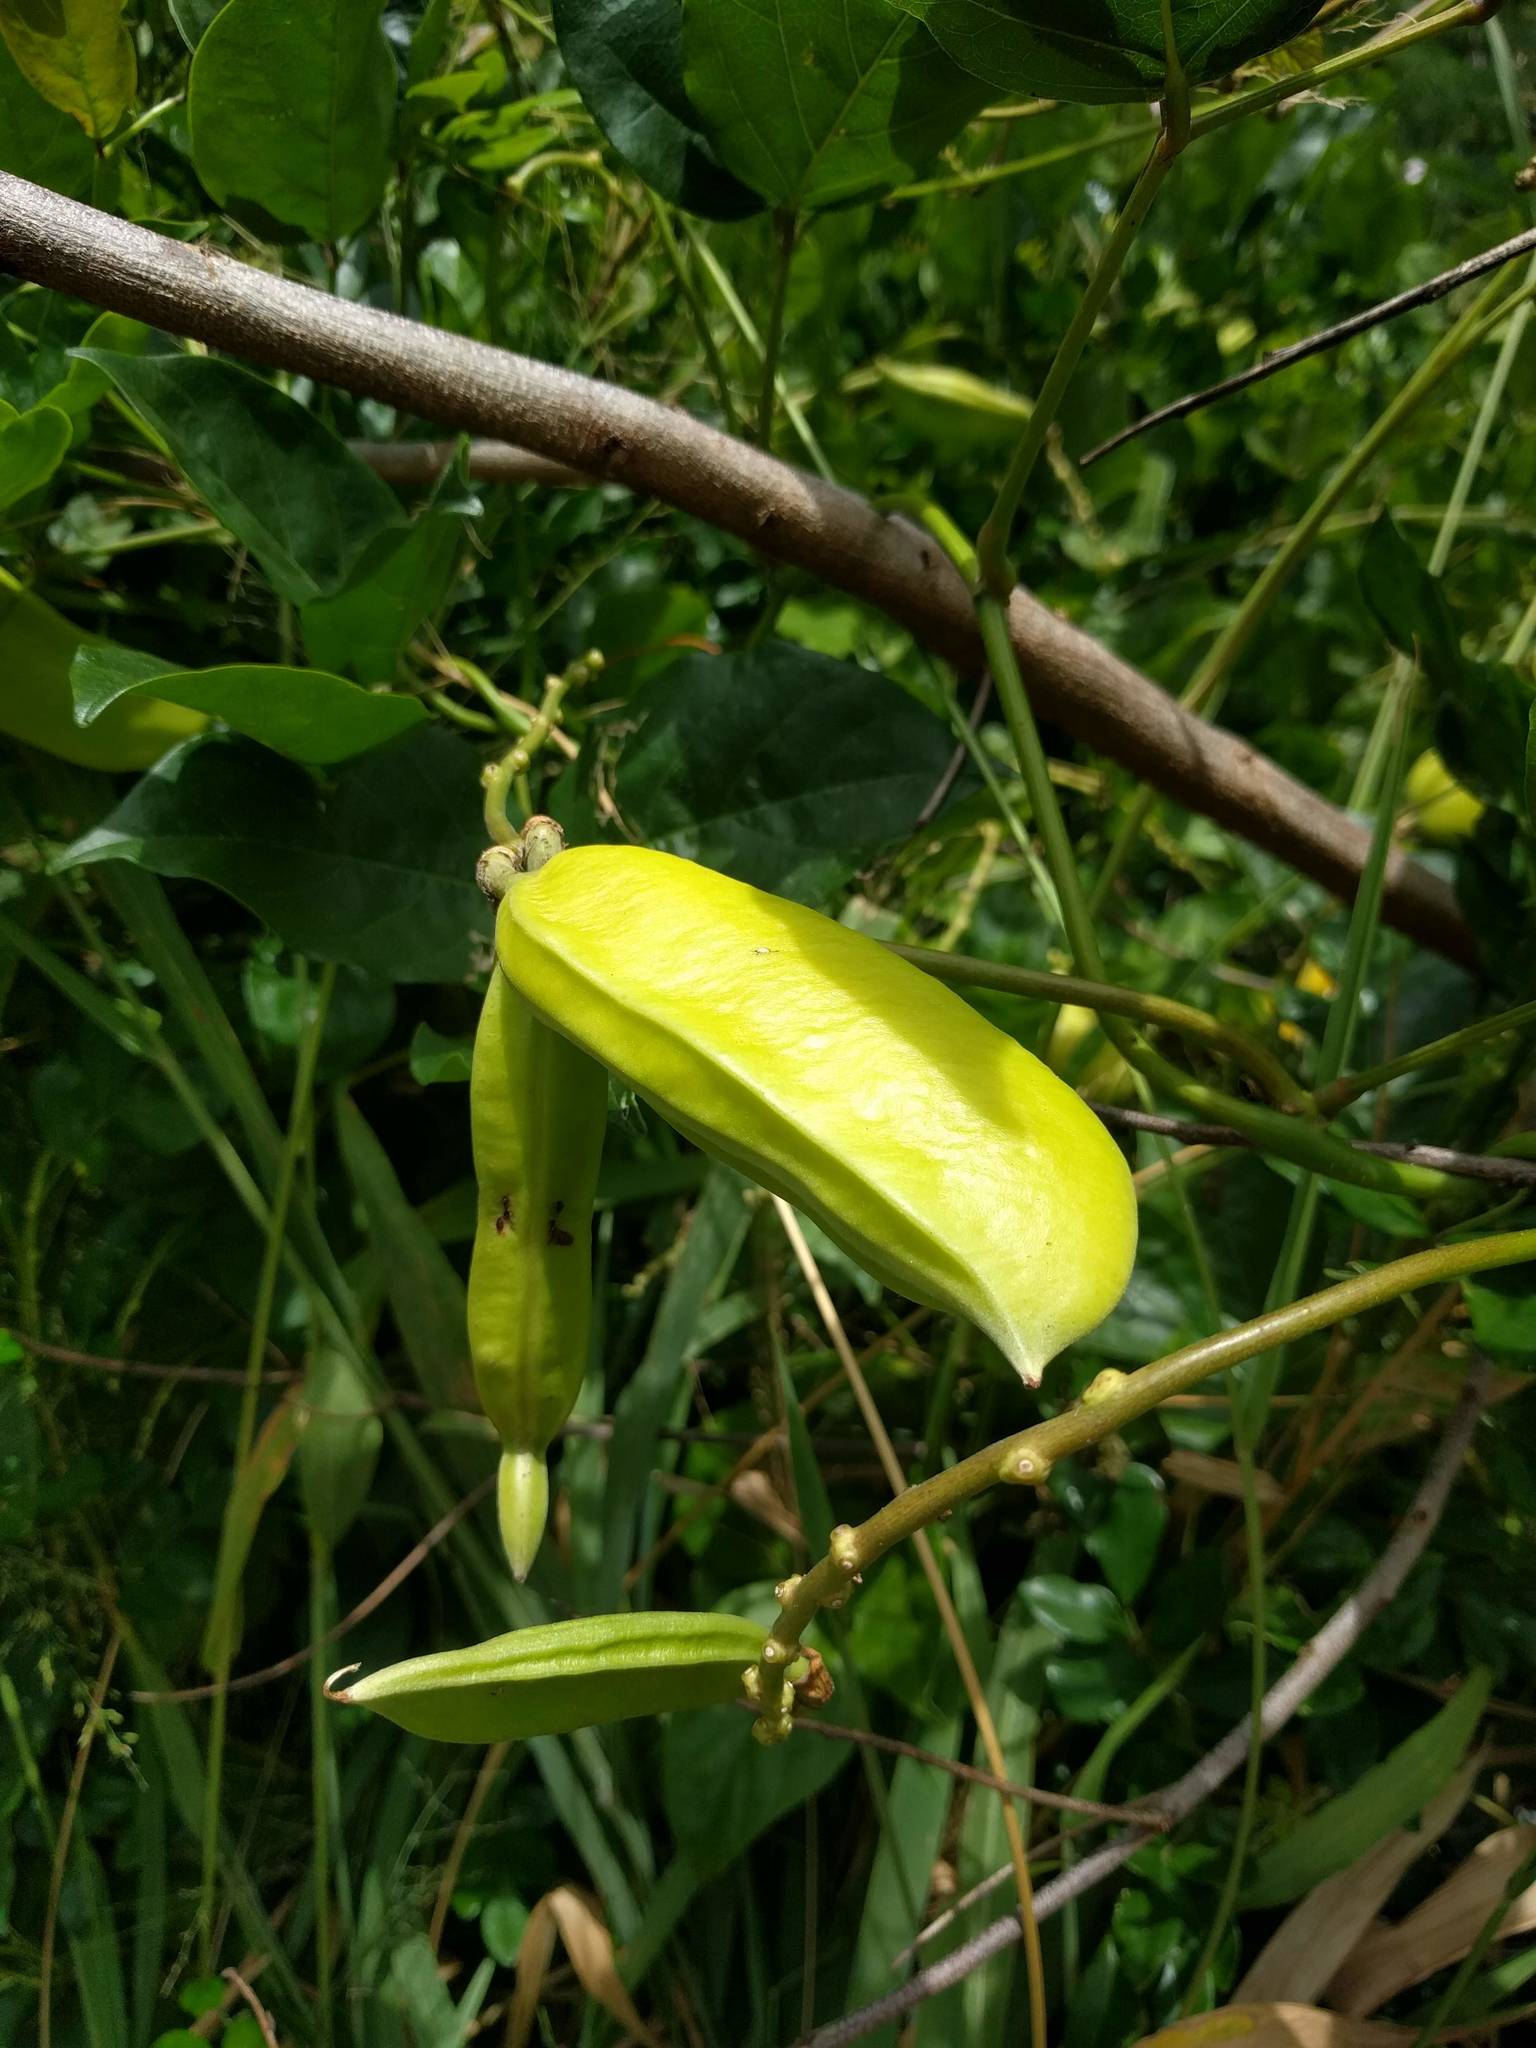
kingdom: Plantae
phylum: Tracheophyta
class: Magnoliopsida
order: Fabales
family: Fabaceae
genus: Canavalia
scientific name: Canavalia cathartica
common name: Maunaloa
